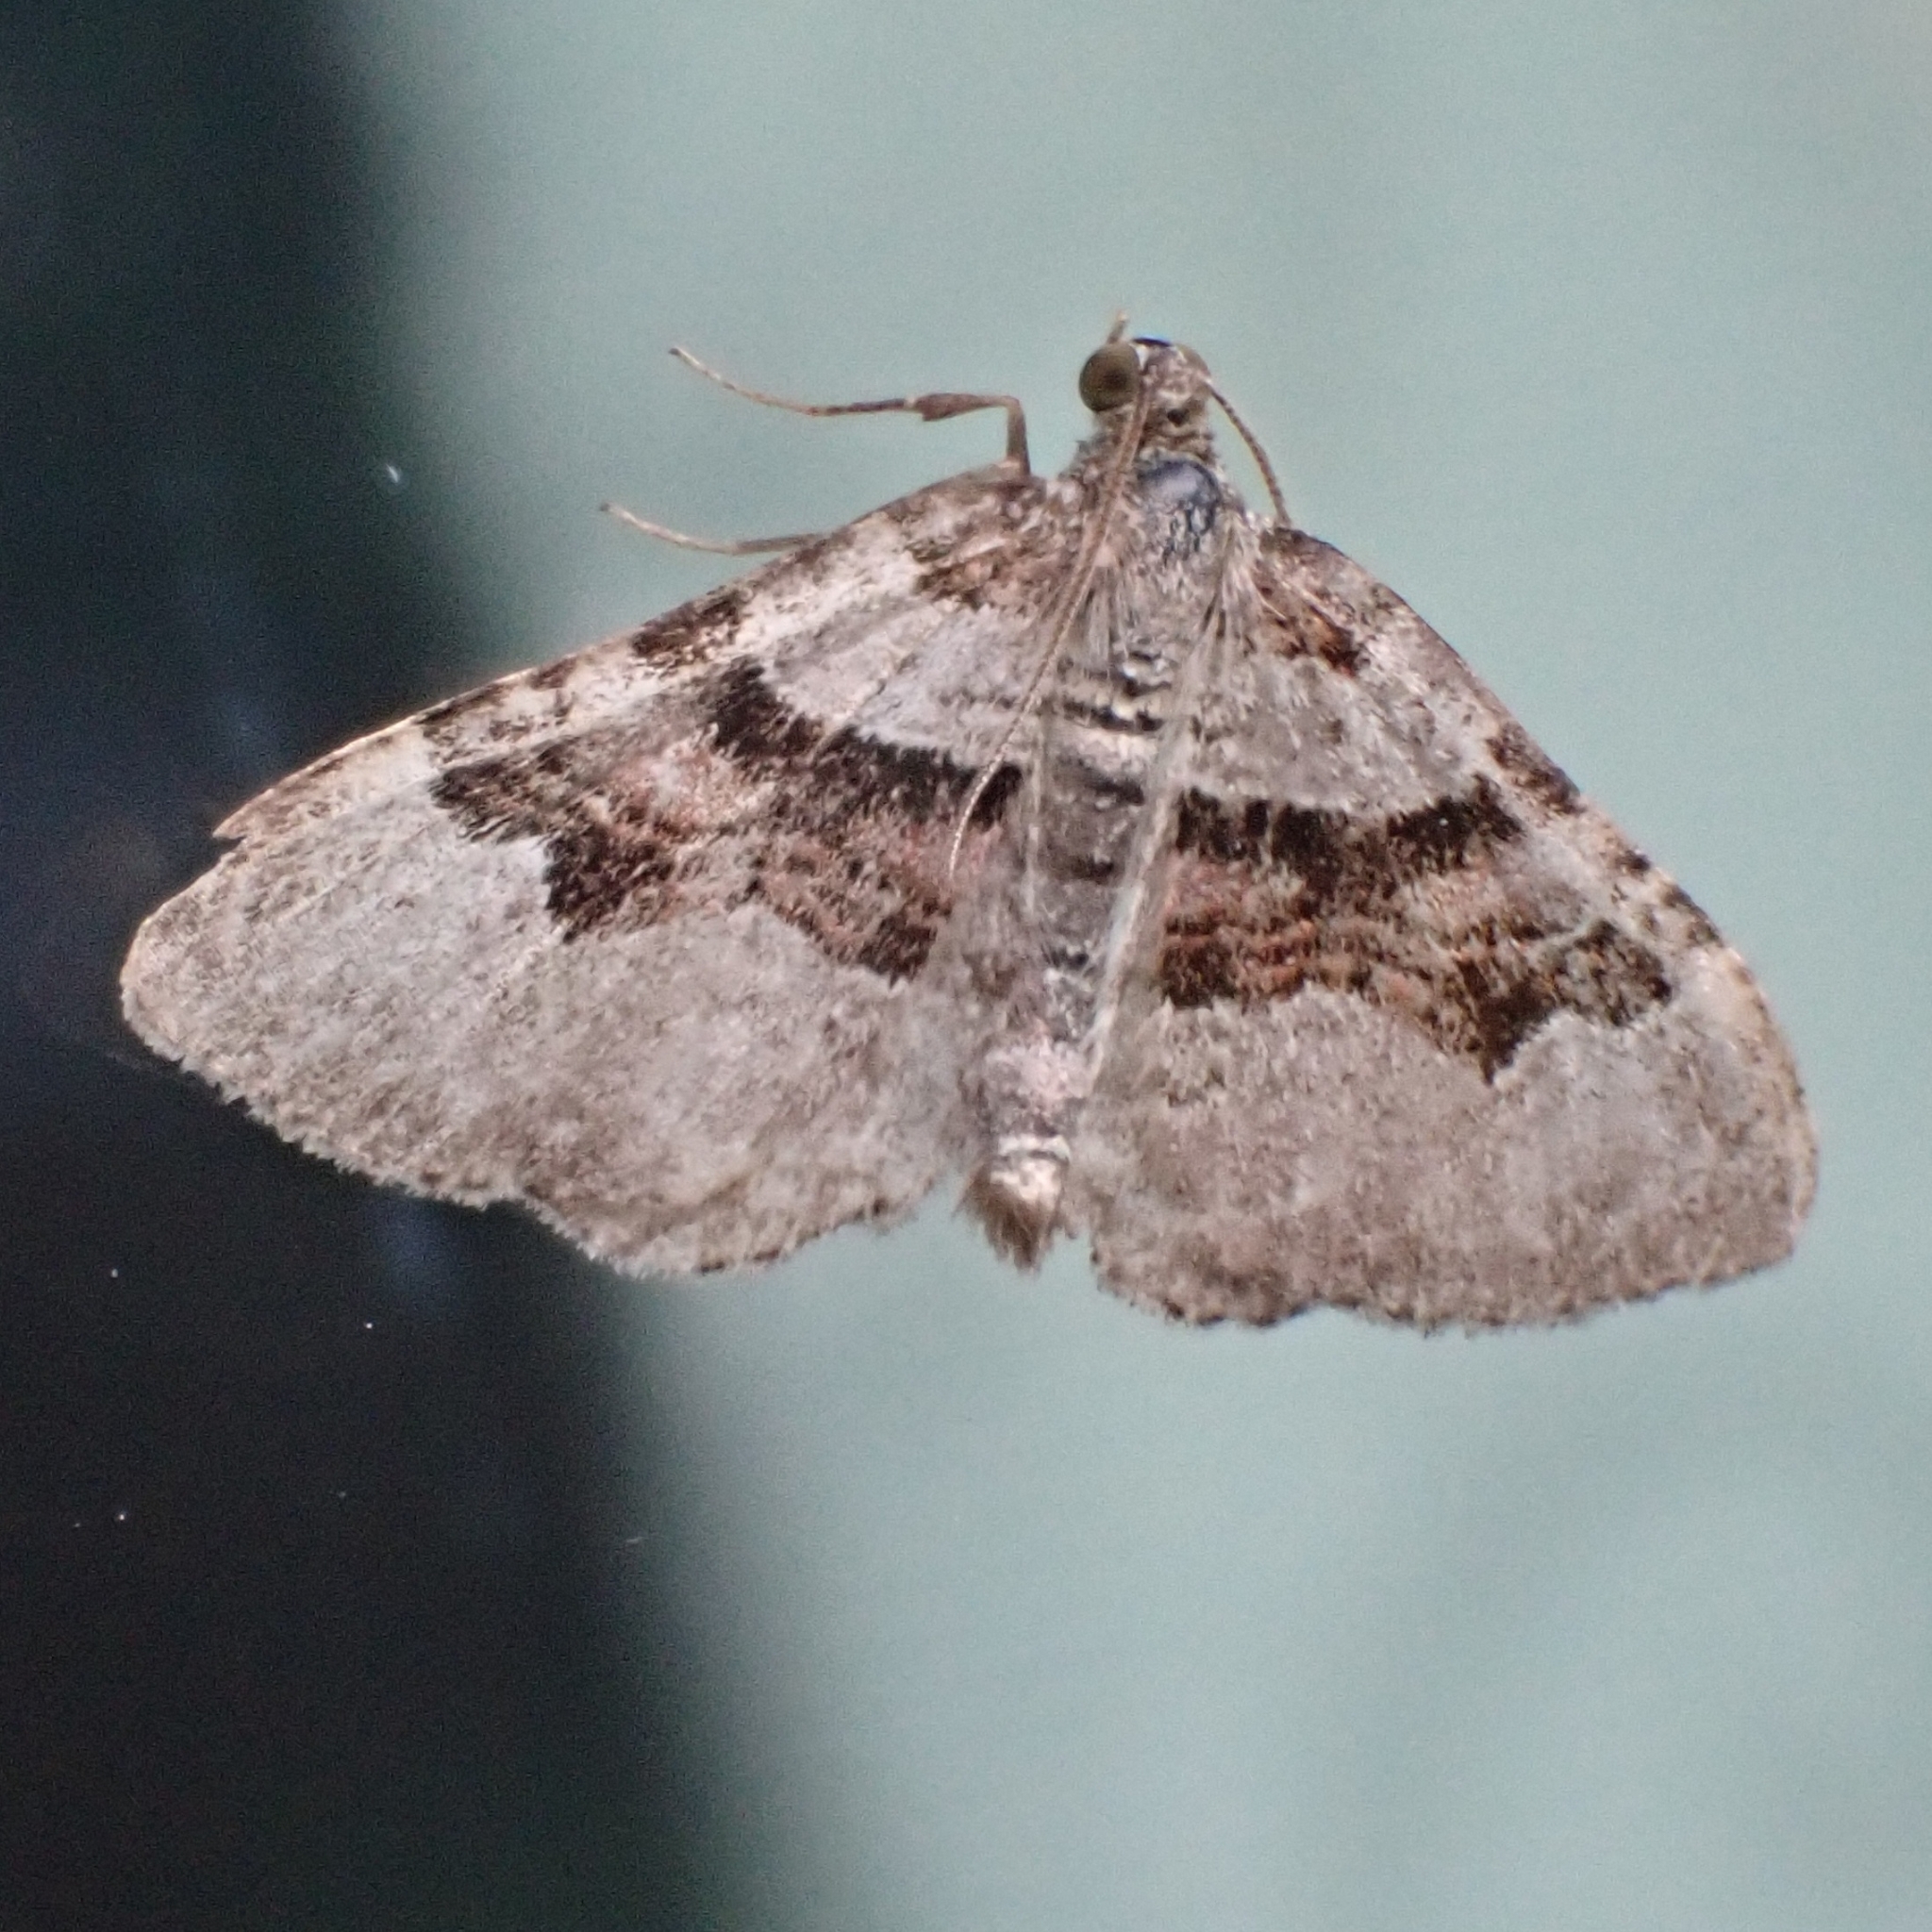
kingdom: Animalia
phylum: Arthropoda
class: Insecta
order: Lepidoptera
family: Geometridae
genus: Xanthorhoe
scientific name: Xanthorhoe designata
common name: Flame carpet
